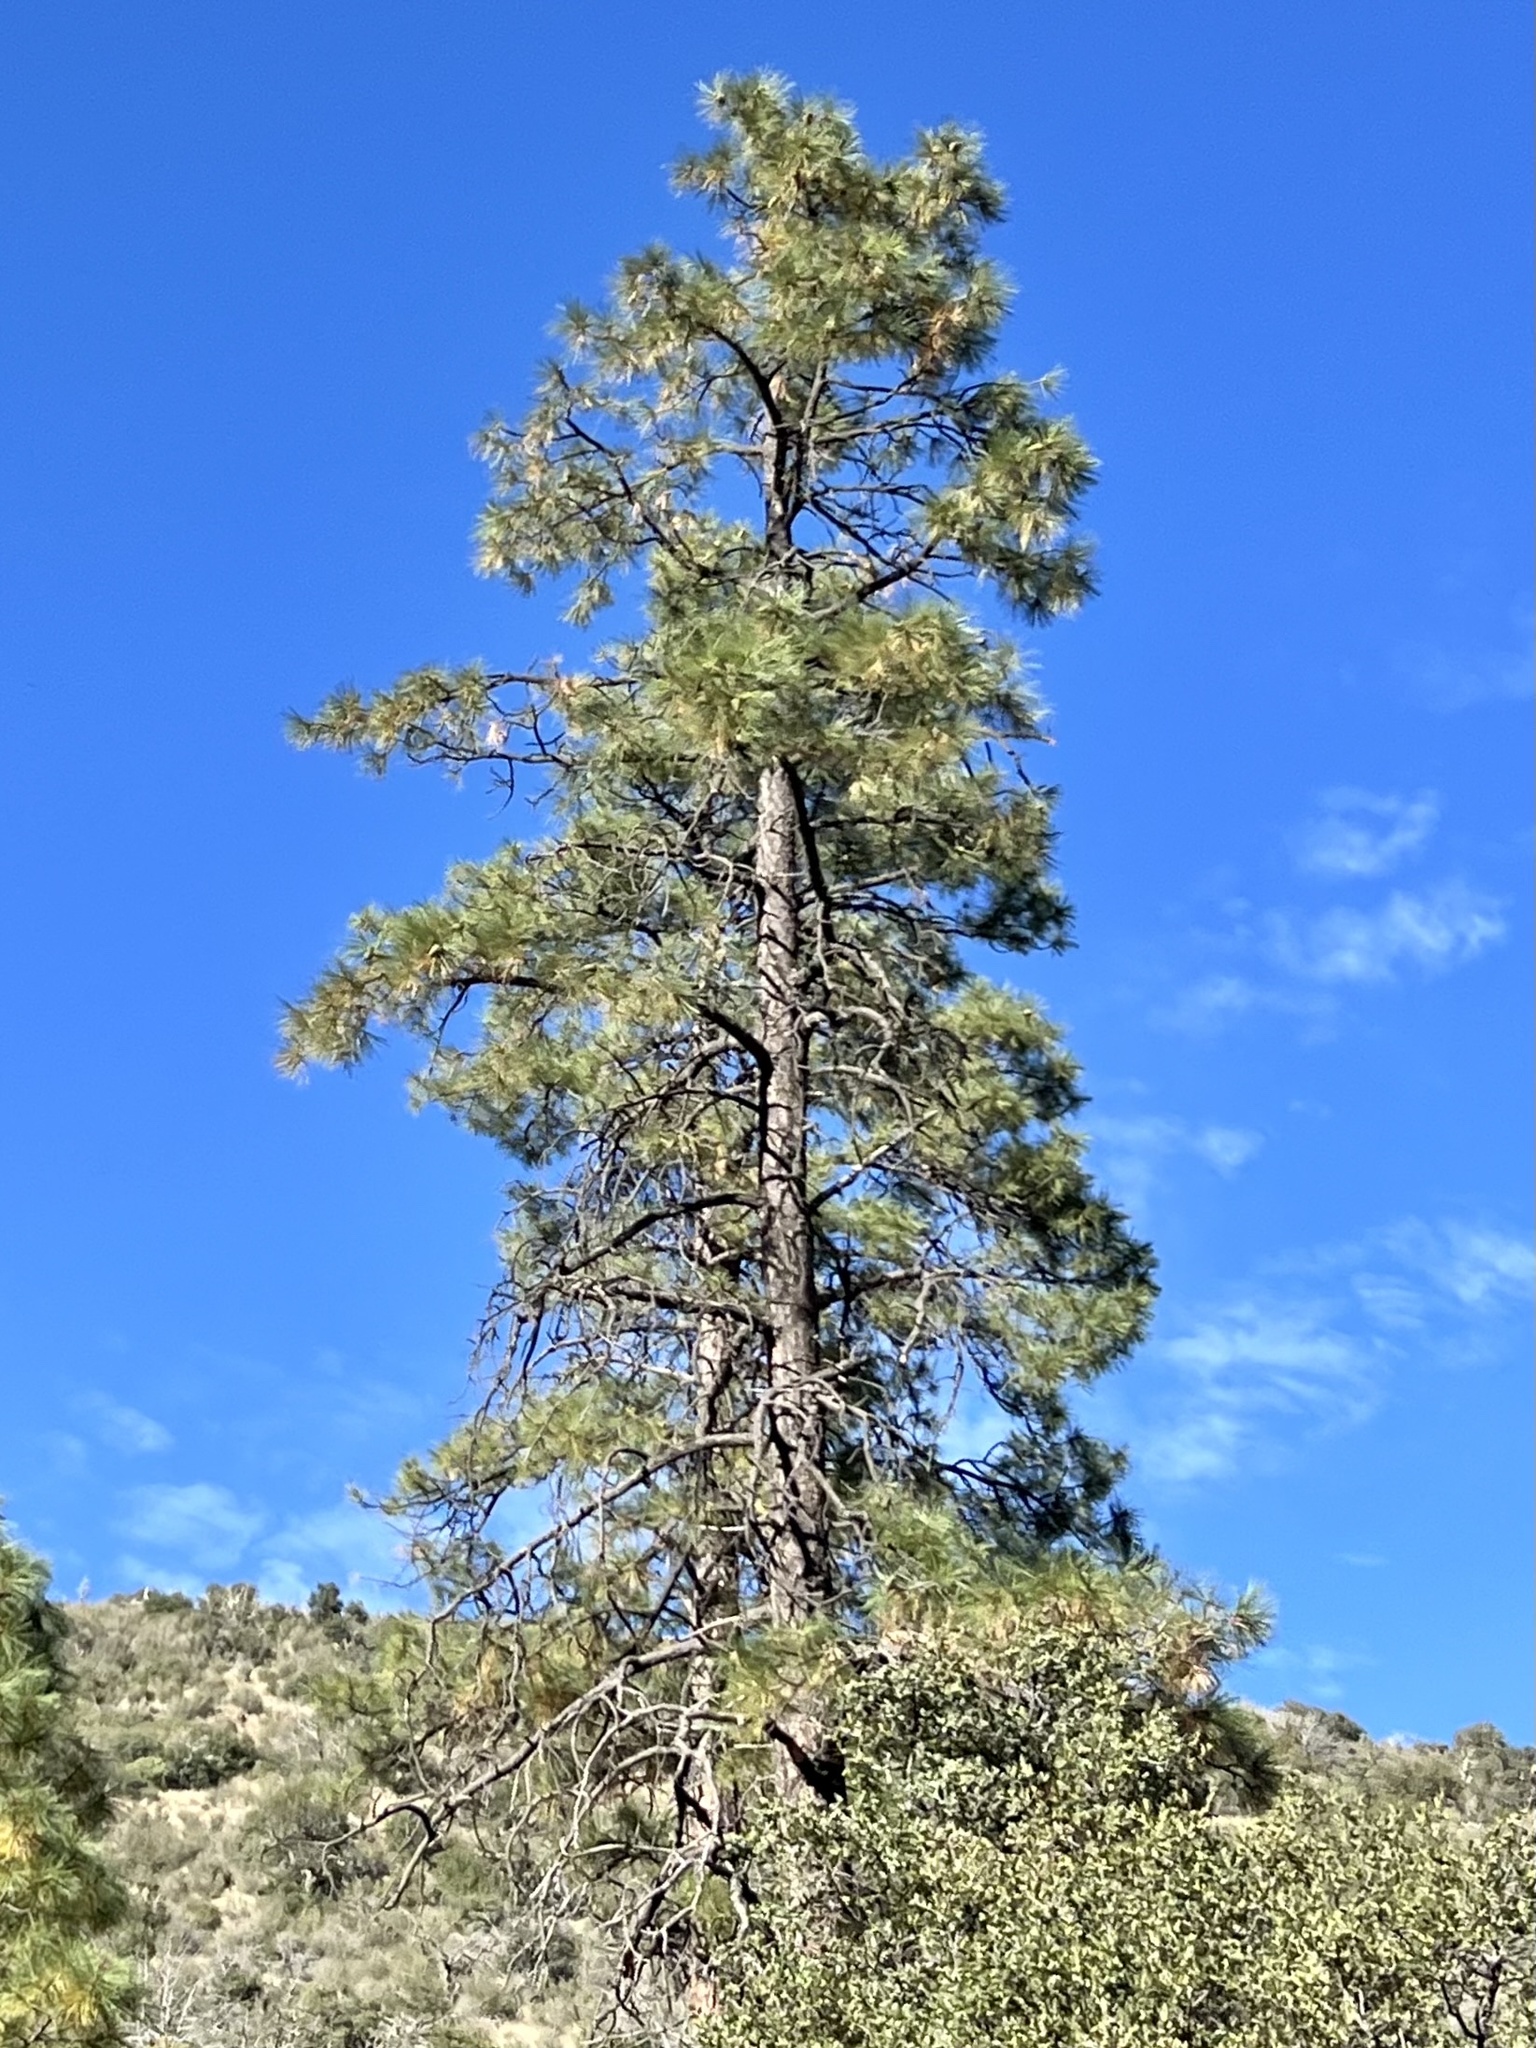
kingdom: Plantae
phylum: Tracheophyta
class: Pinopsida
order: Pinales
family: Pinaceae
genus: Pinus
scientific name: Pinus ponderosa
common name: Western yellow-pine
